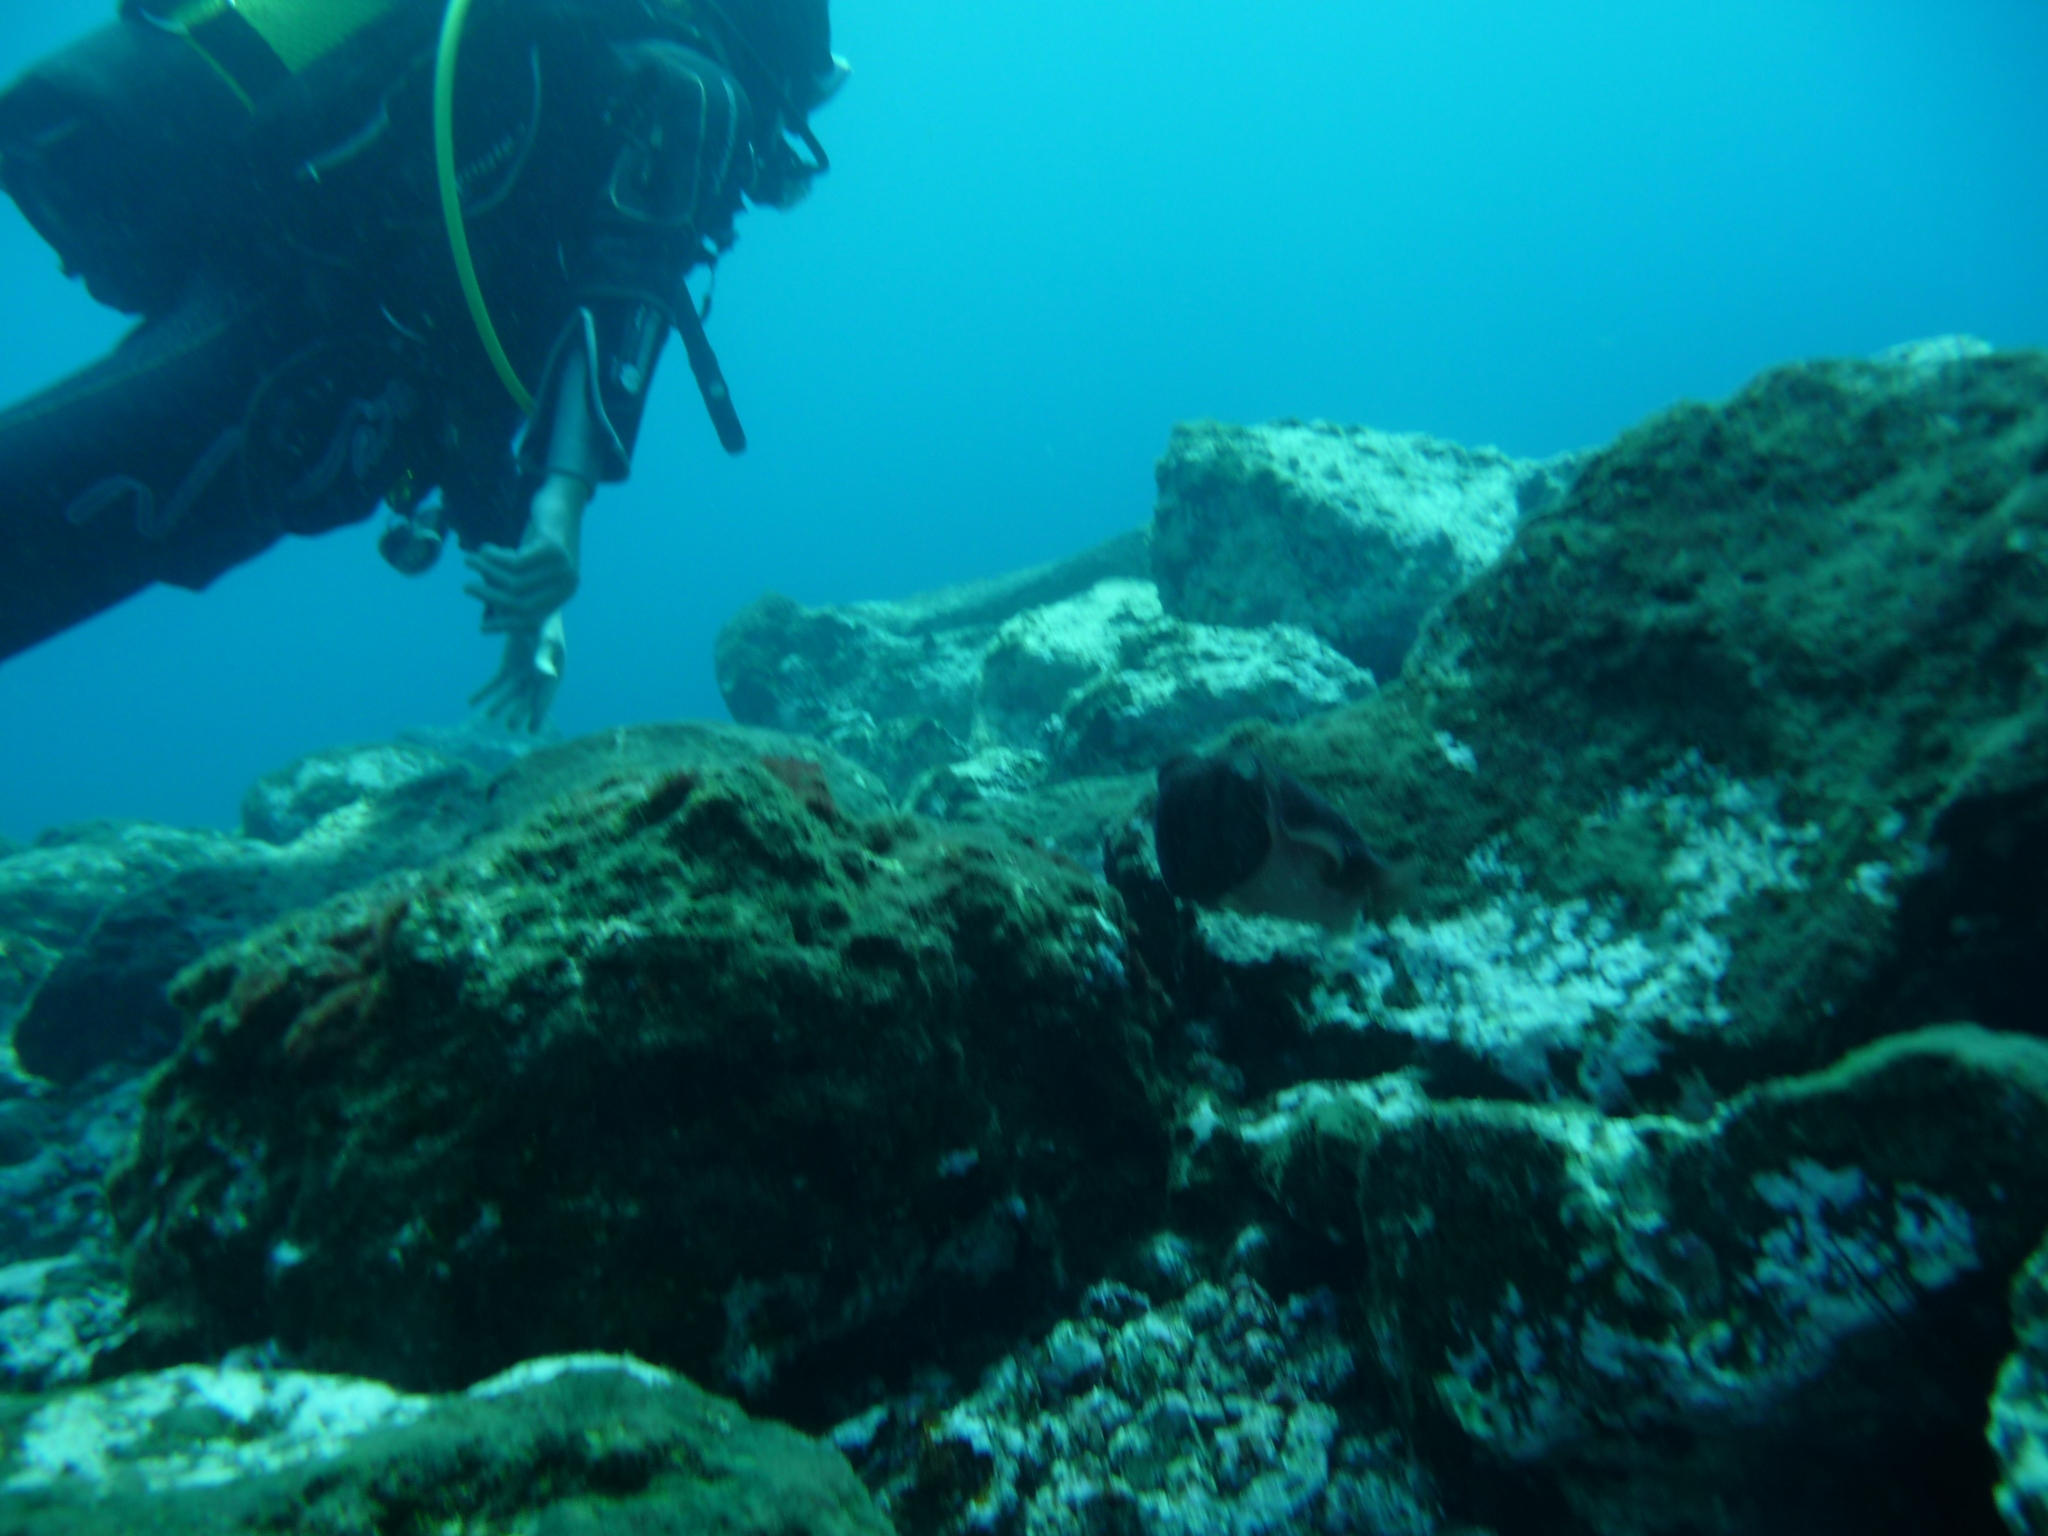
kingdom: Animalia
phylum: Mollusca
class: Cephalopoda
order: Sepiida
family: Sepiidae
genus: Sepia
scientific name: Sepia officinalis
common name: Common cuttlefish
